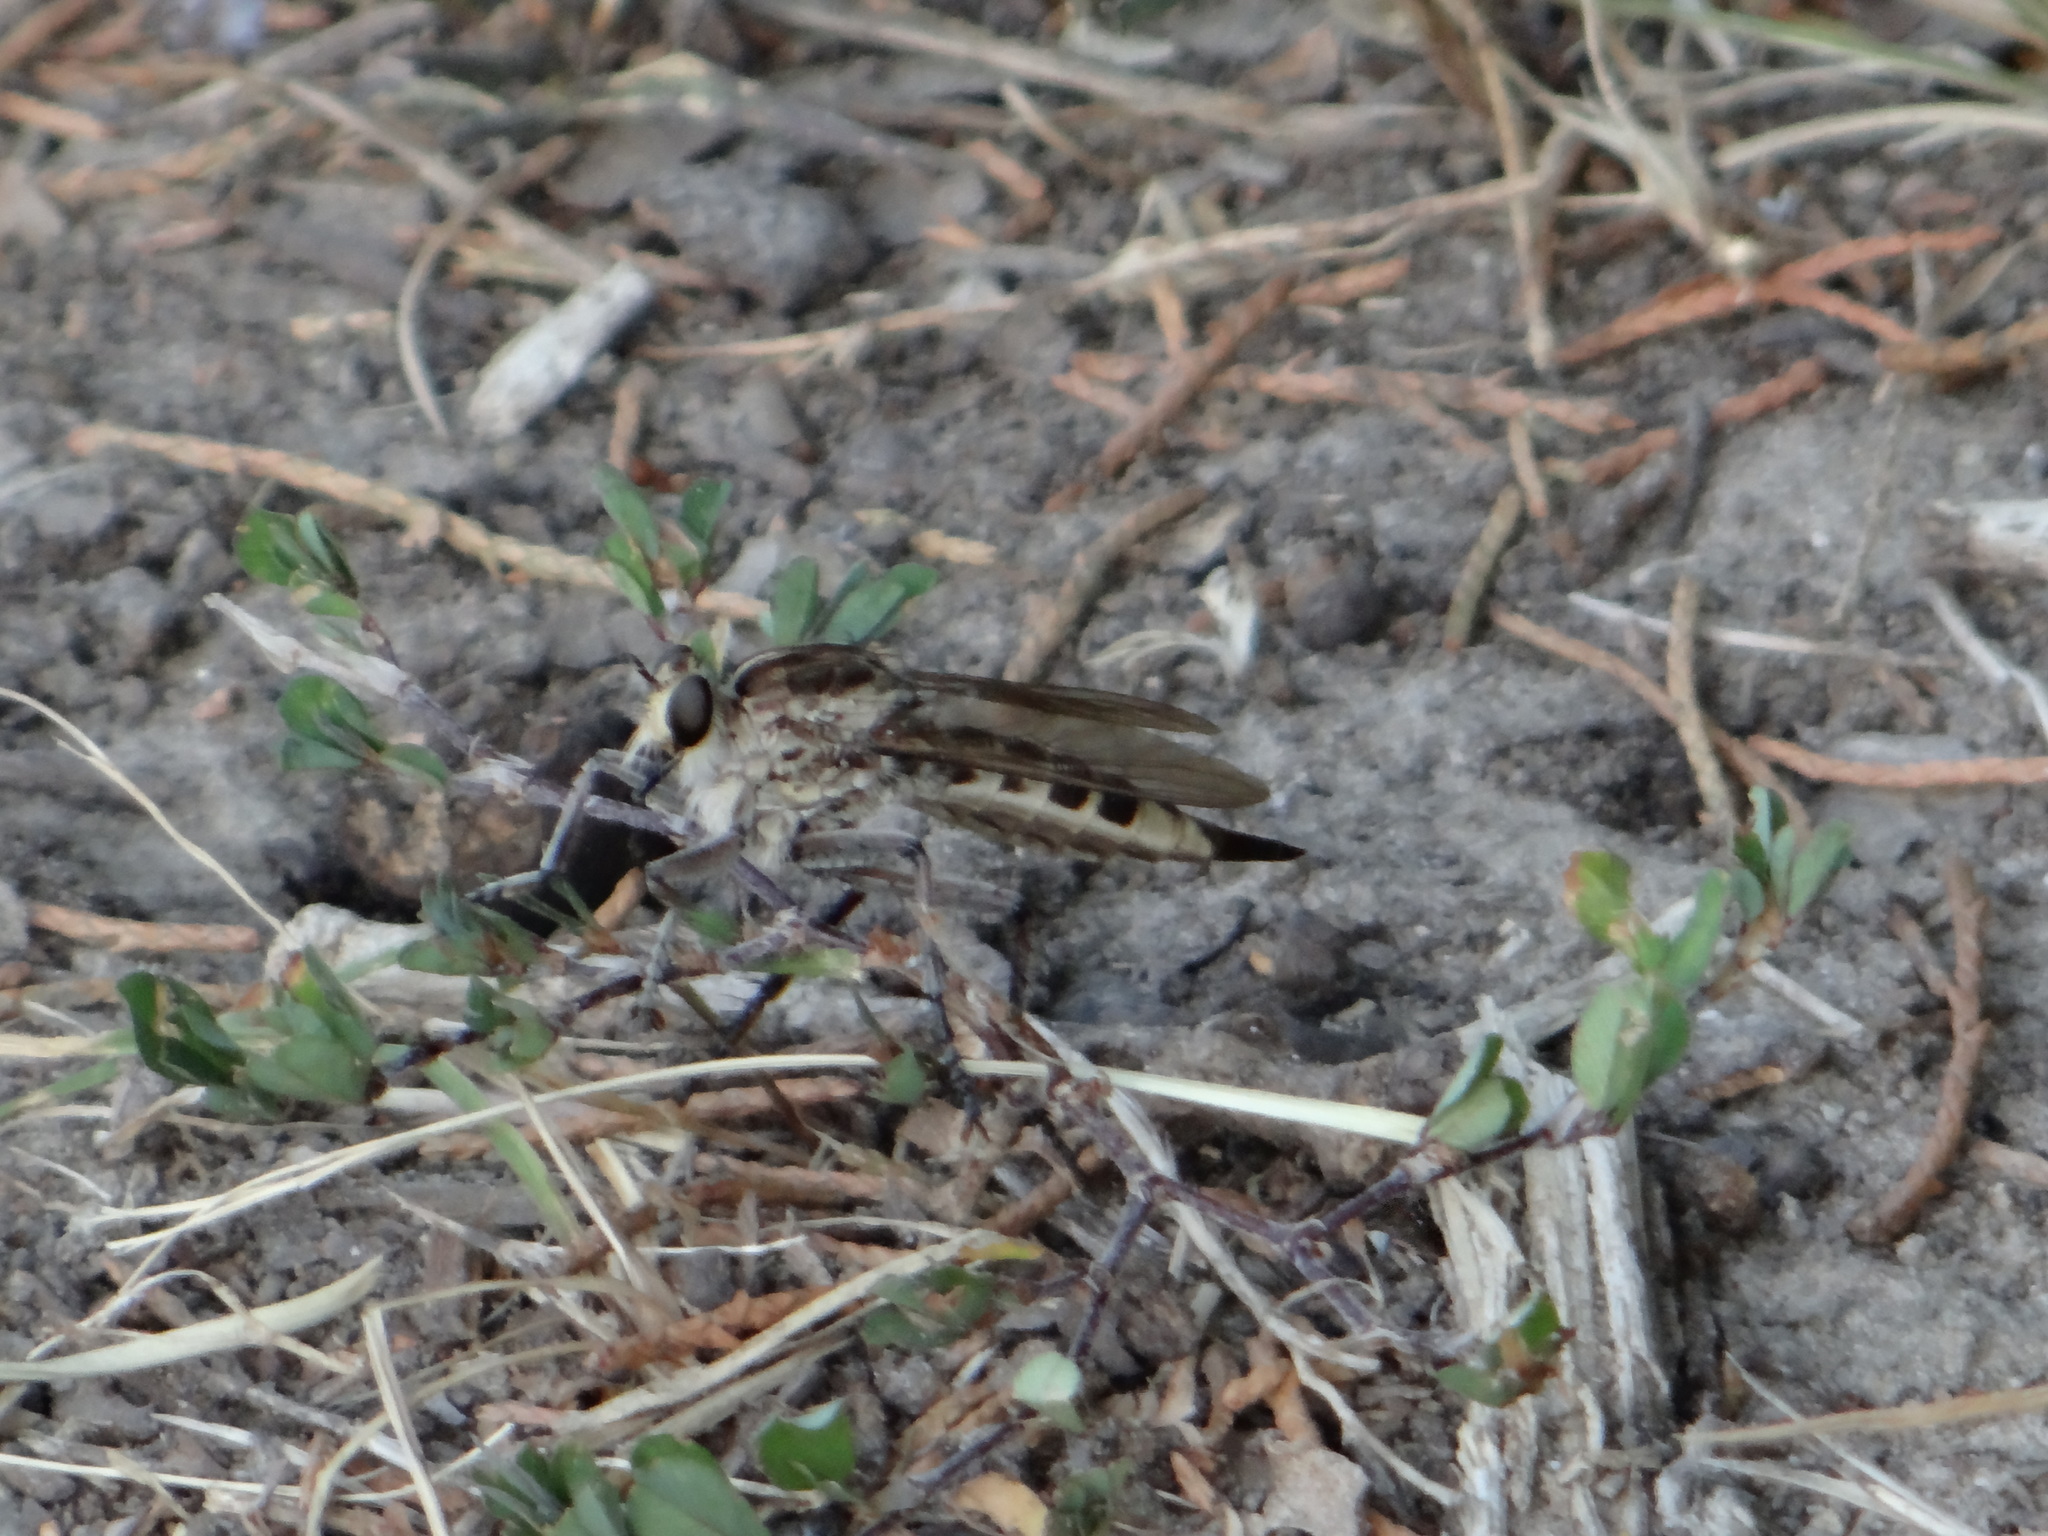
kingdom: Animalia
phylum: Arthropoda
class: Insecta
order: Diptera
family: Asilidae
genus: Triorla
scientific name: Triorla interrupta
